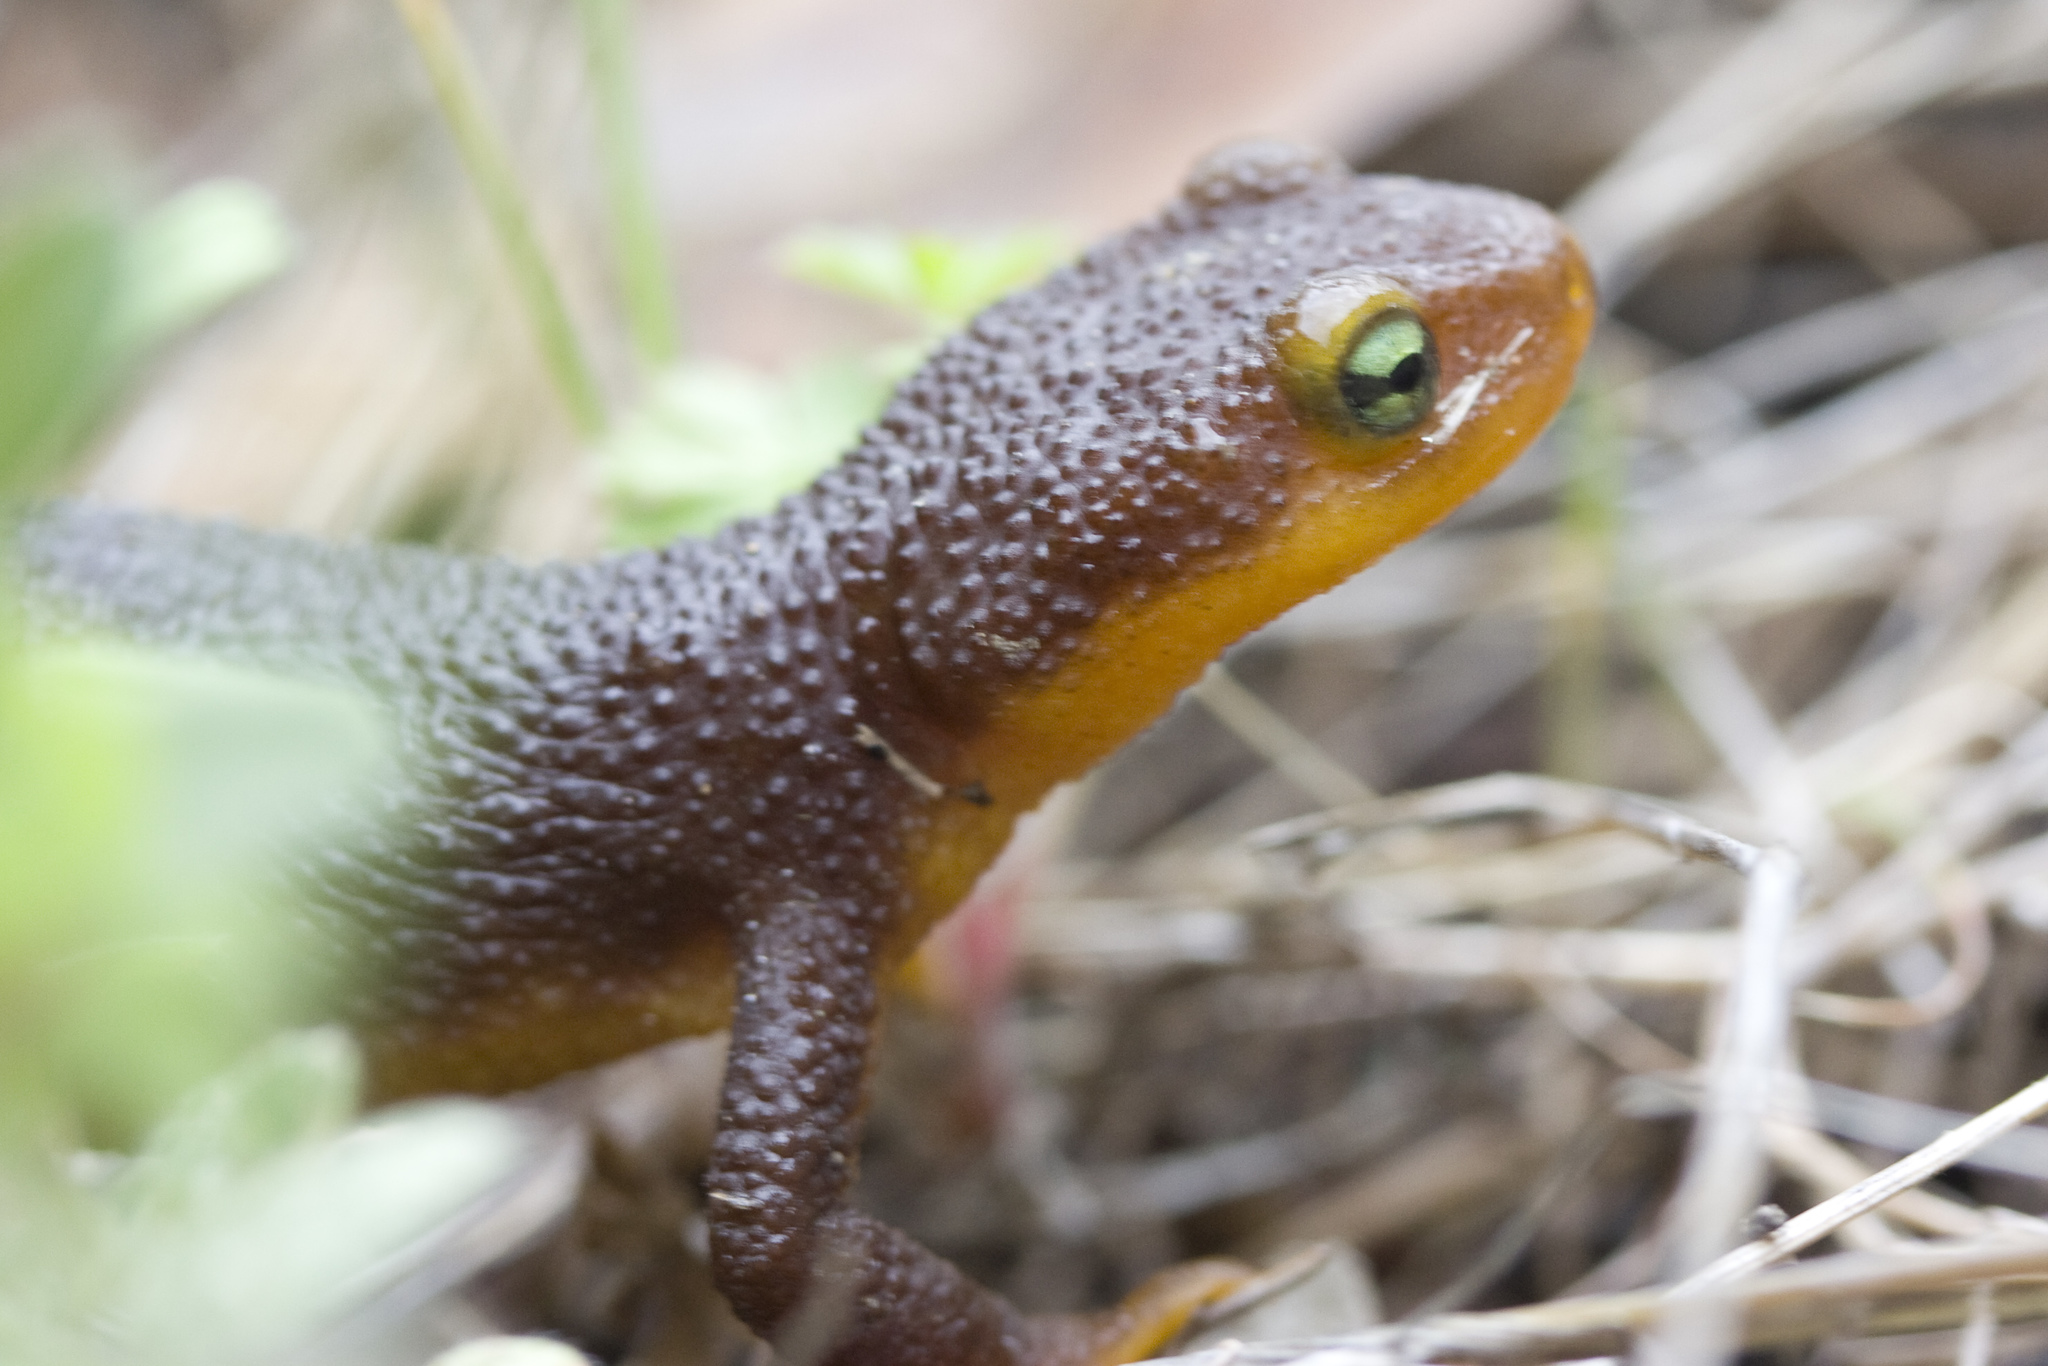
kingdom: Animalia
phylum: Chordata
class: Amphibia
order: Caudata
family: Salamandridae
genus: Taricha
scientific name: Taricha torosa
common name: California newt
